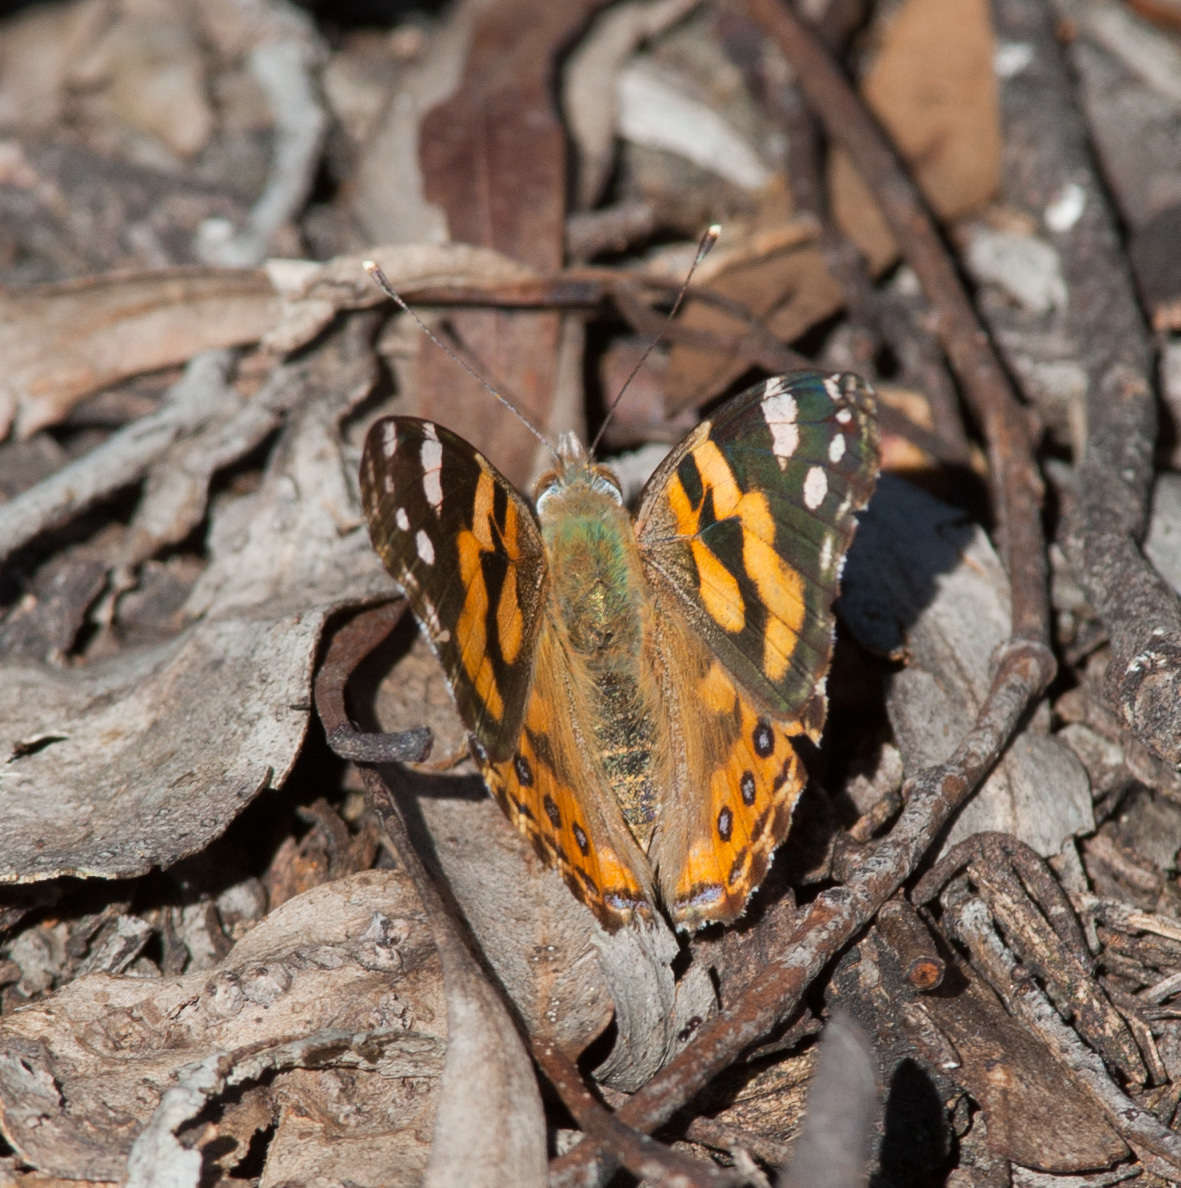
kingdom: Animalia
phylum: Arthropoda
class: Insecta
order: Lepidoptera
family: Nymphalidae
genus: Vanessa
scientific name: Vanessa kershawi
